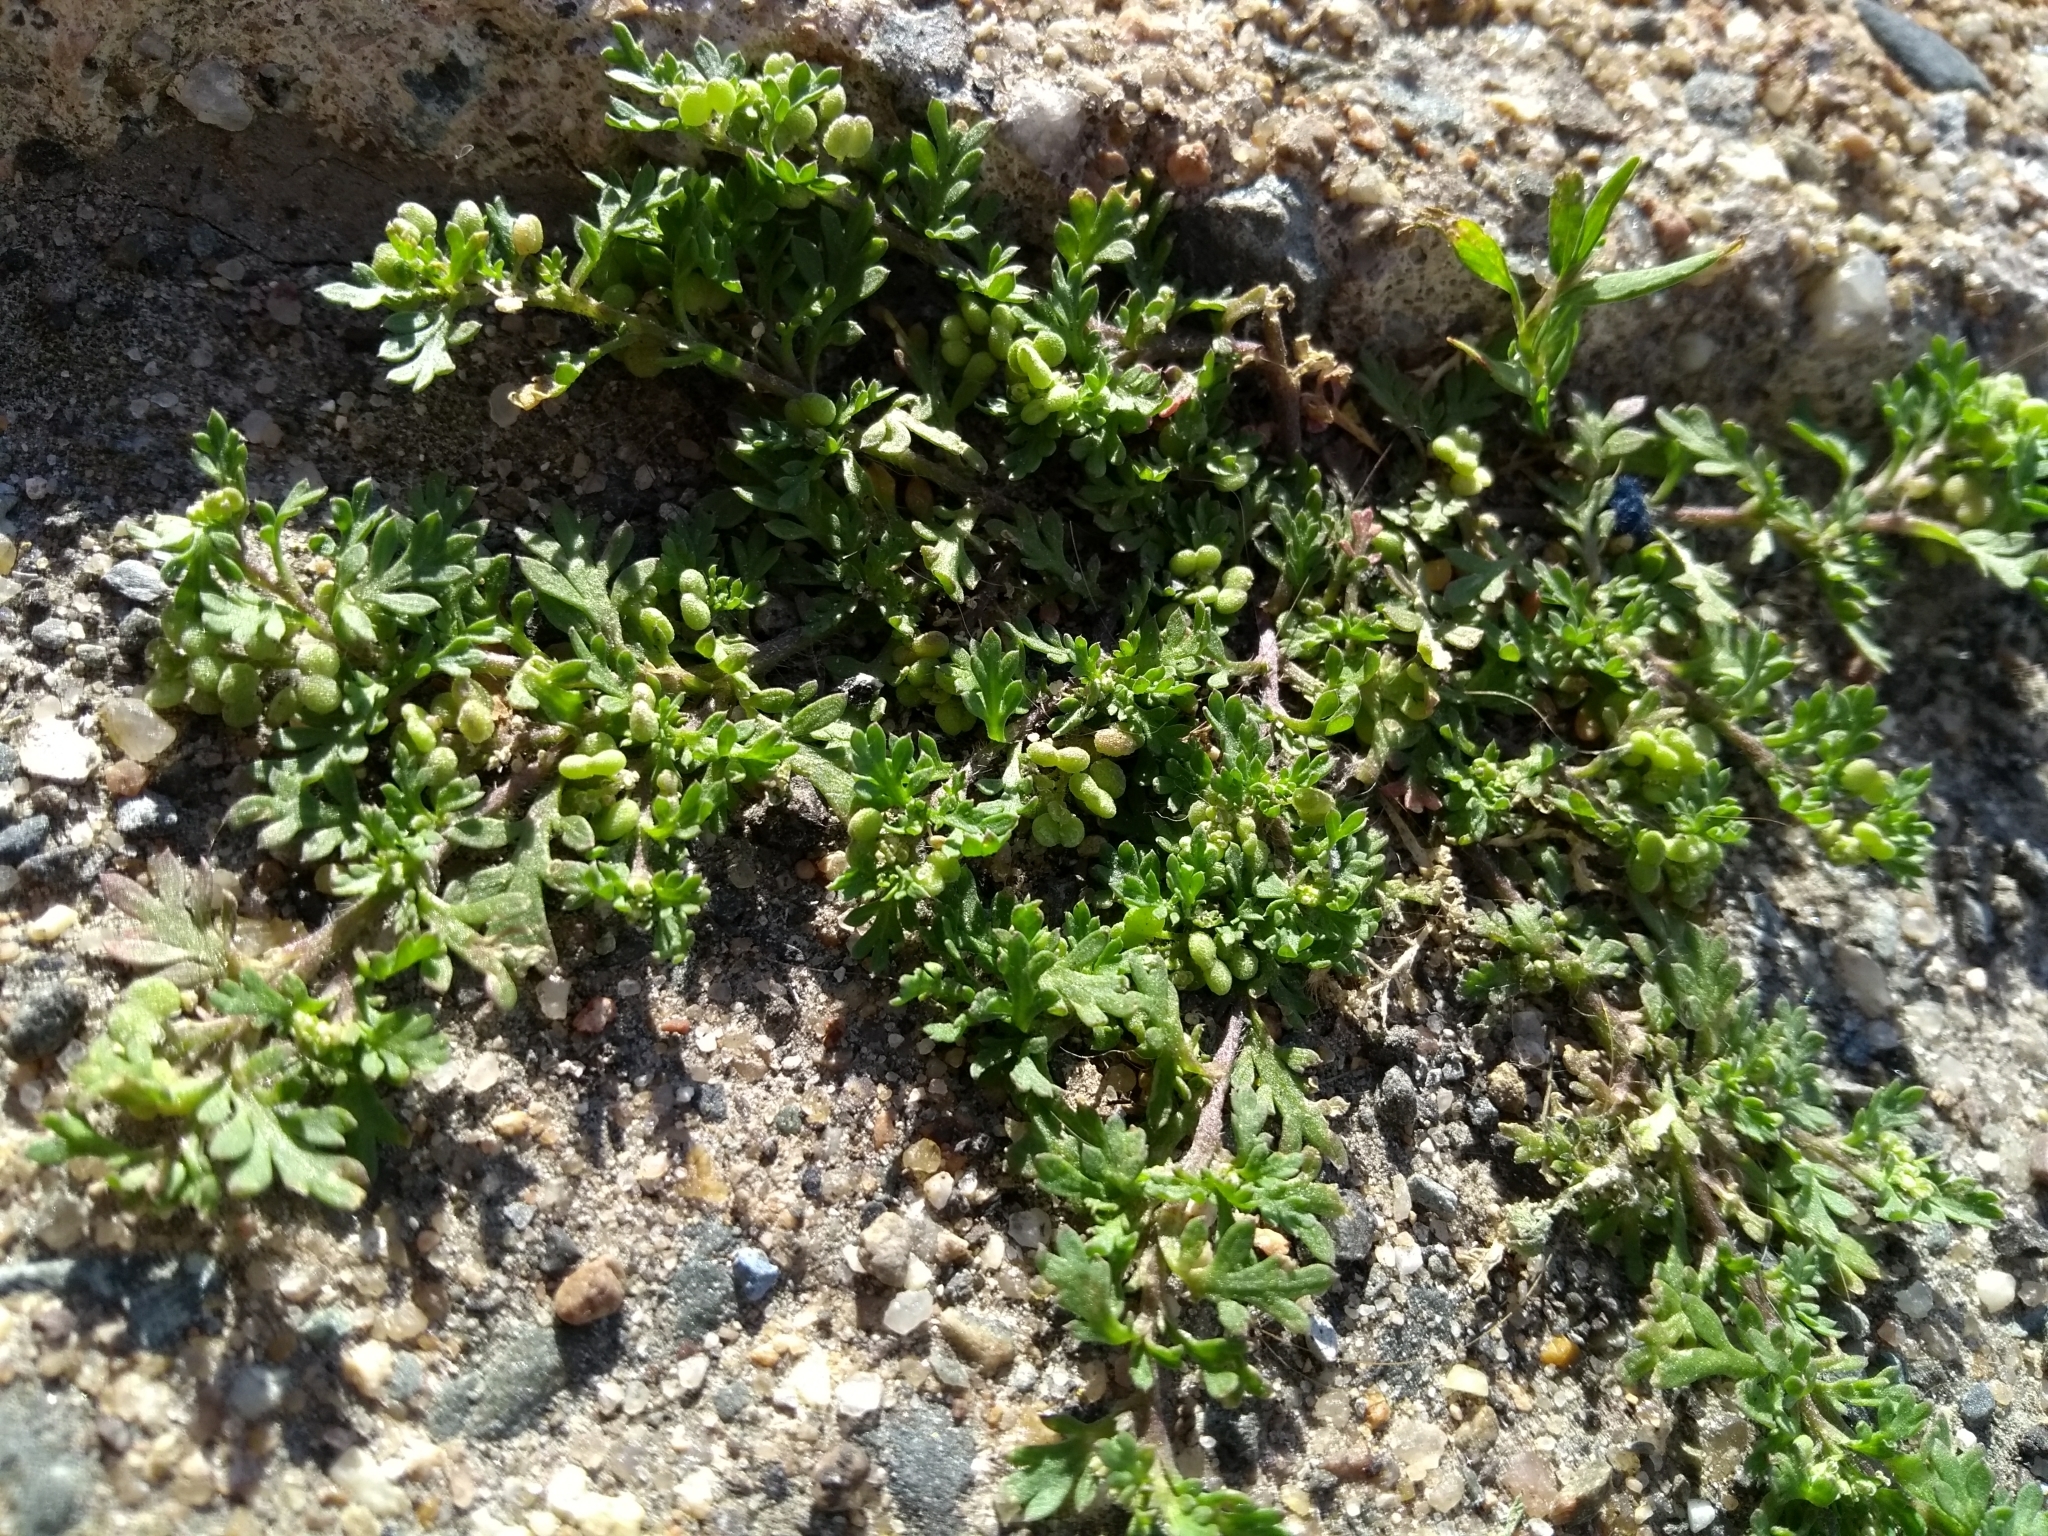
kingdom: Plantae
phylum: Tracheophyta
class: Magnoliopsida
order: Brassicales
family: Brassicaceae
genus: Lepidium
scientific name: Lepidium didymum
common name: Lesser swinecress
